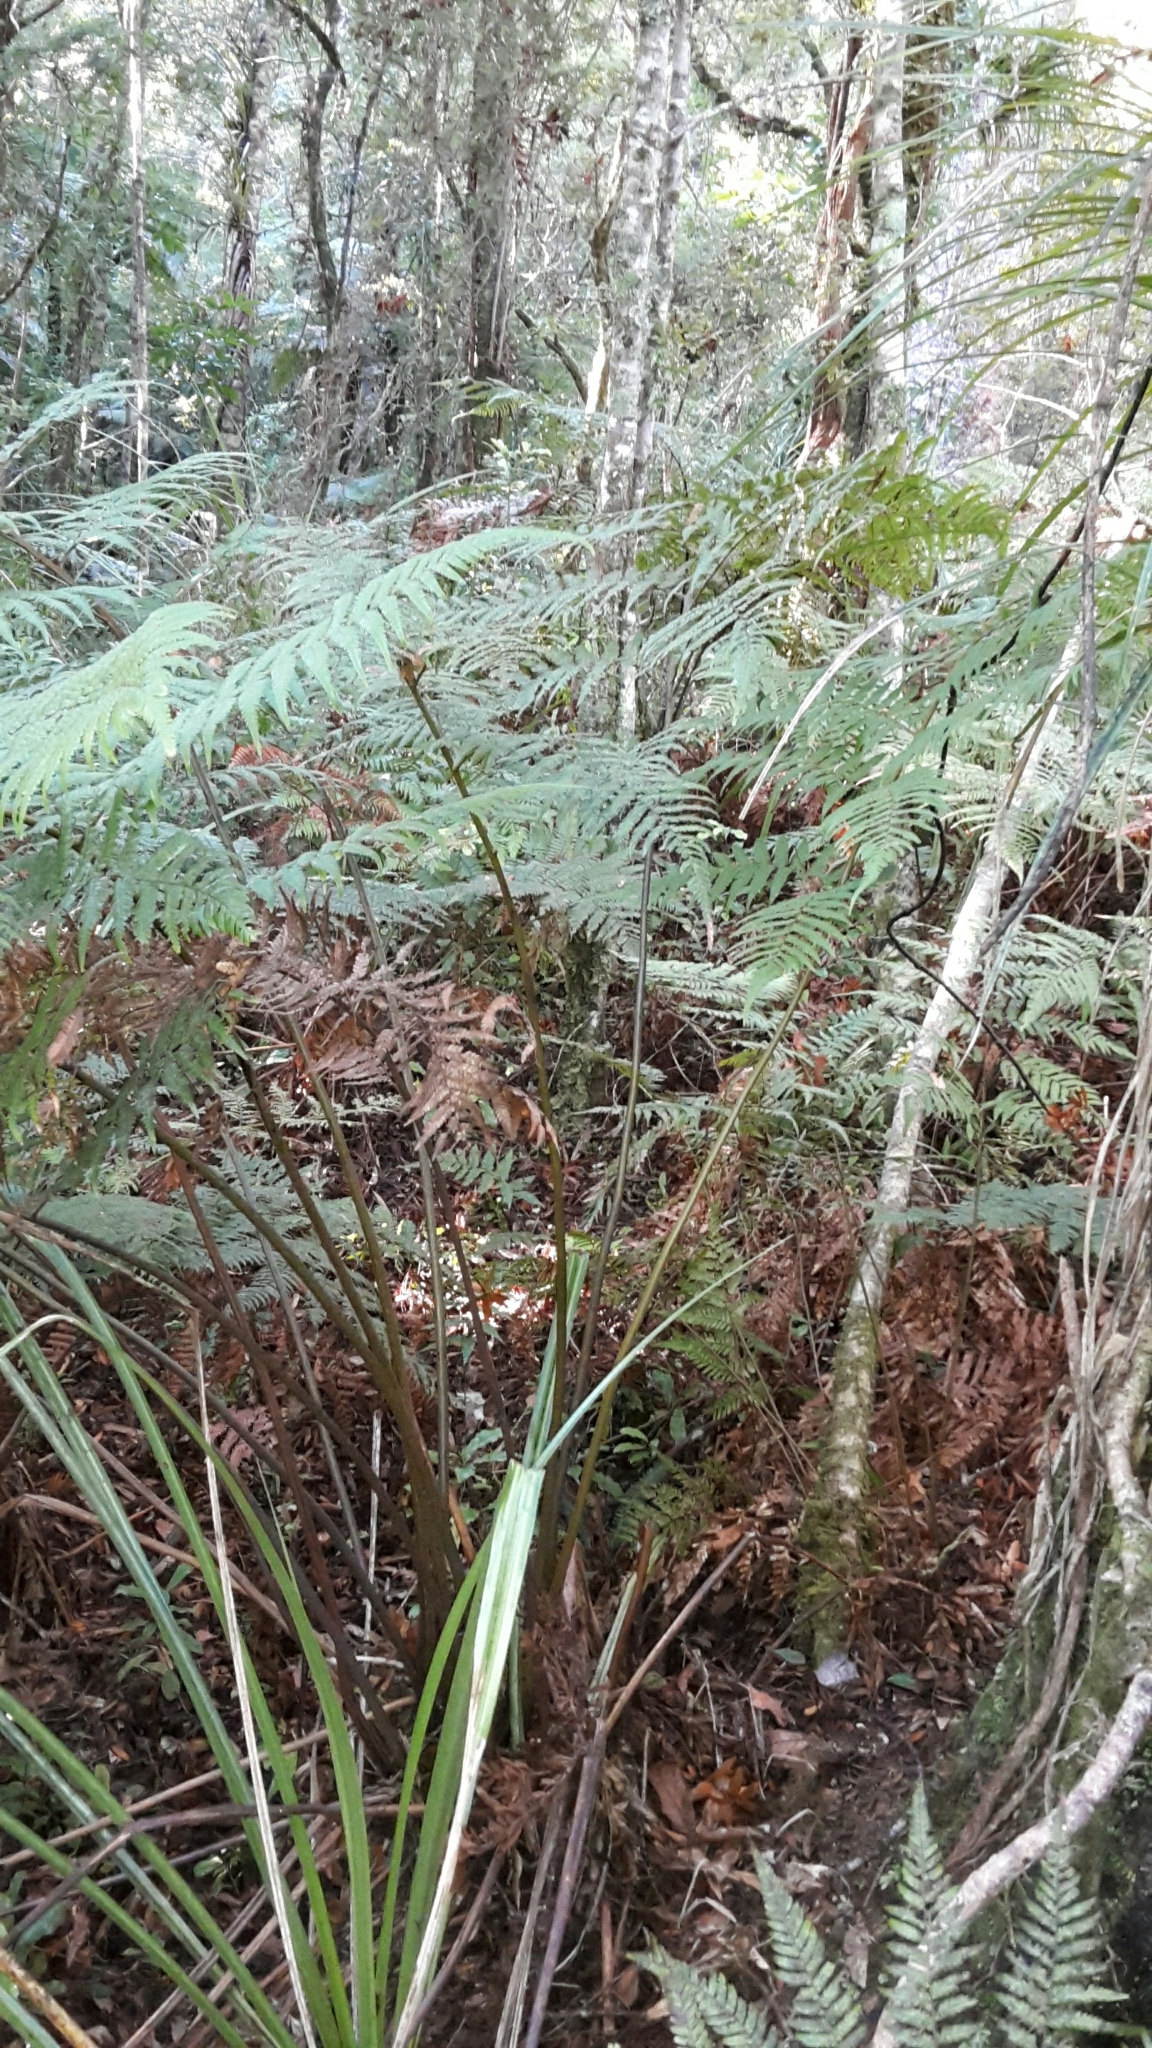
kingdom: Plantae
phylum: Tracheophyta
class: Polypodiopsida
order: Cyatheales
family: Dicksoniaceae
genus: Dicksonia
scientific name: Dicksonia lanata
